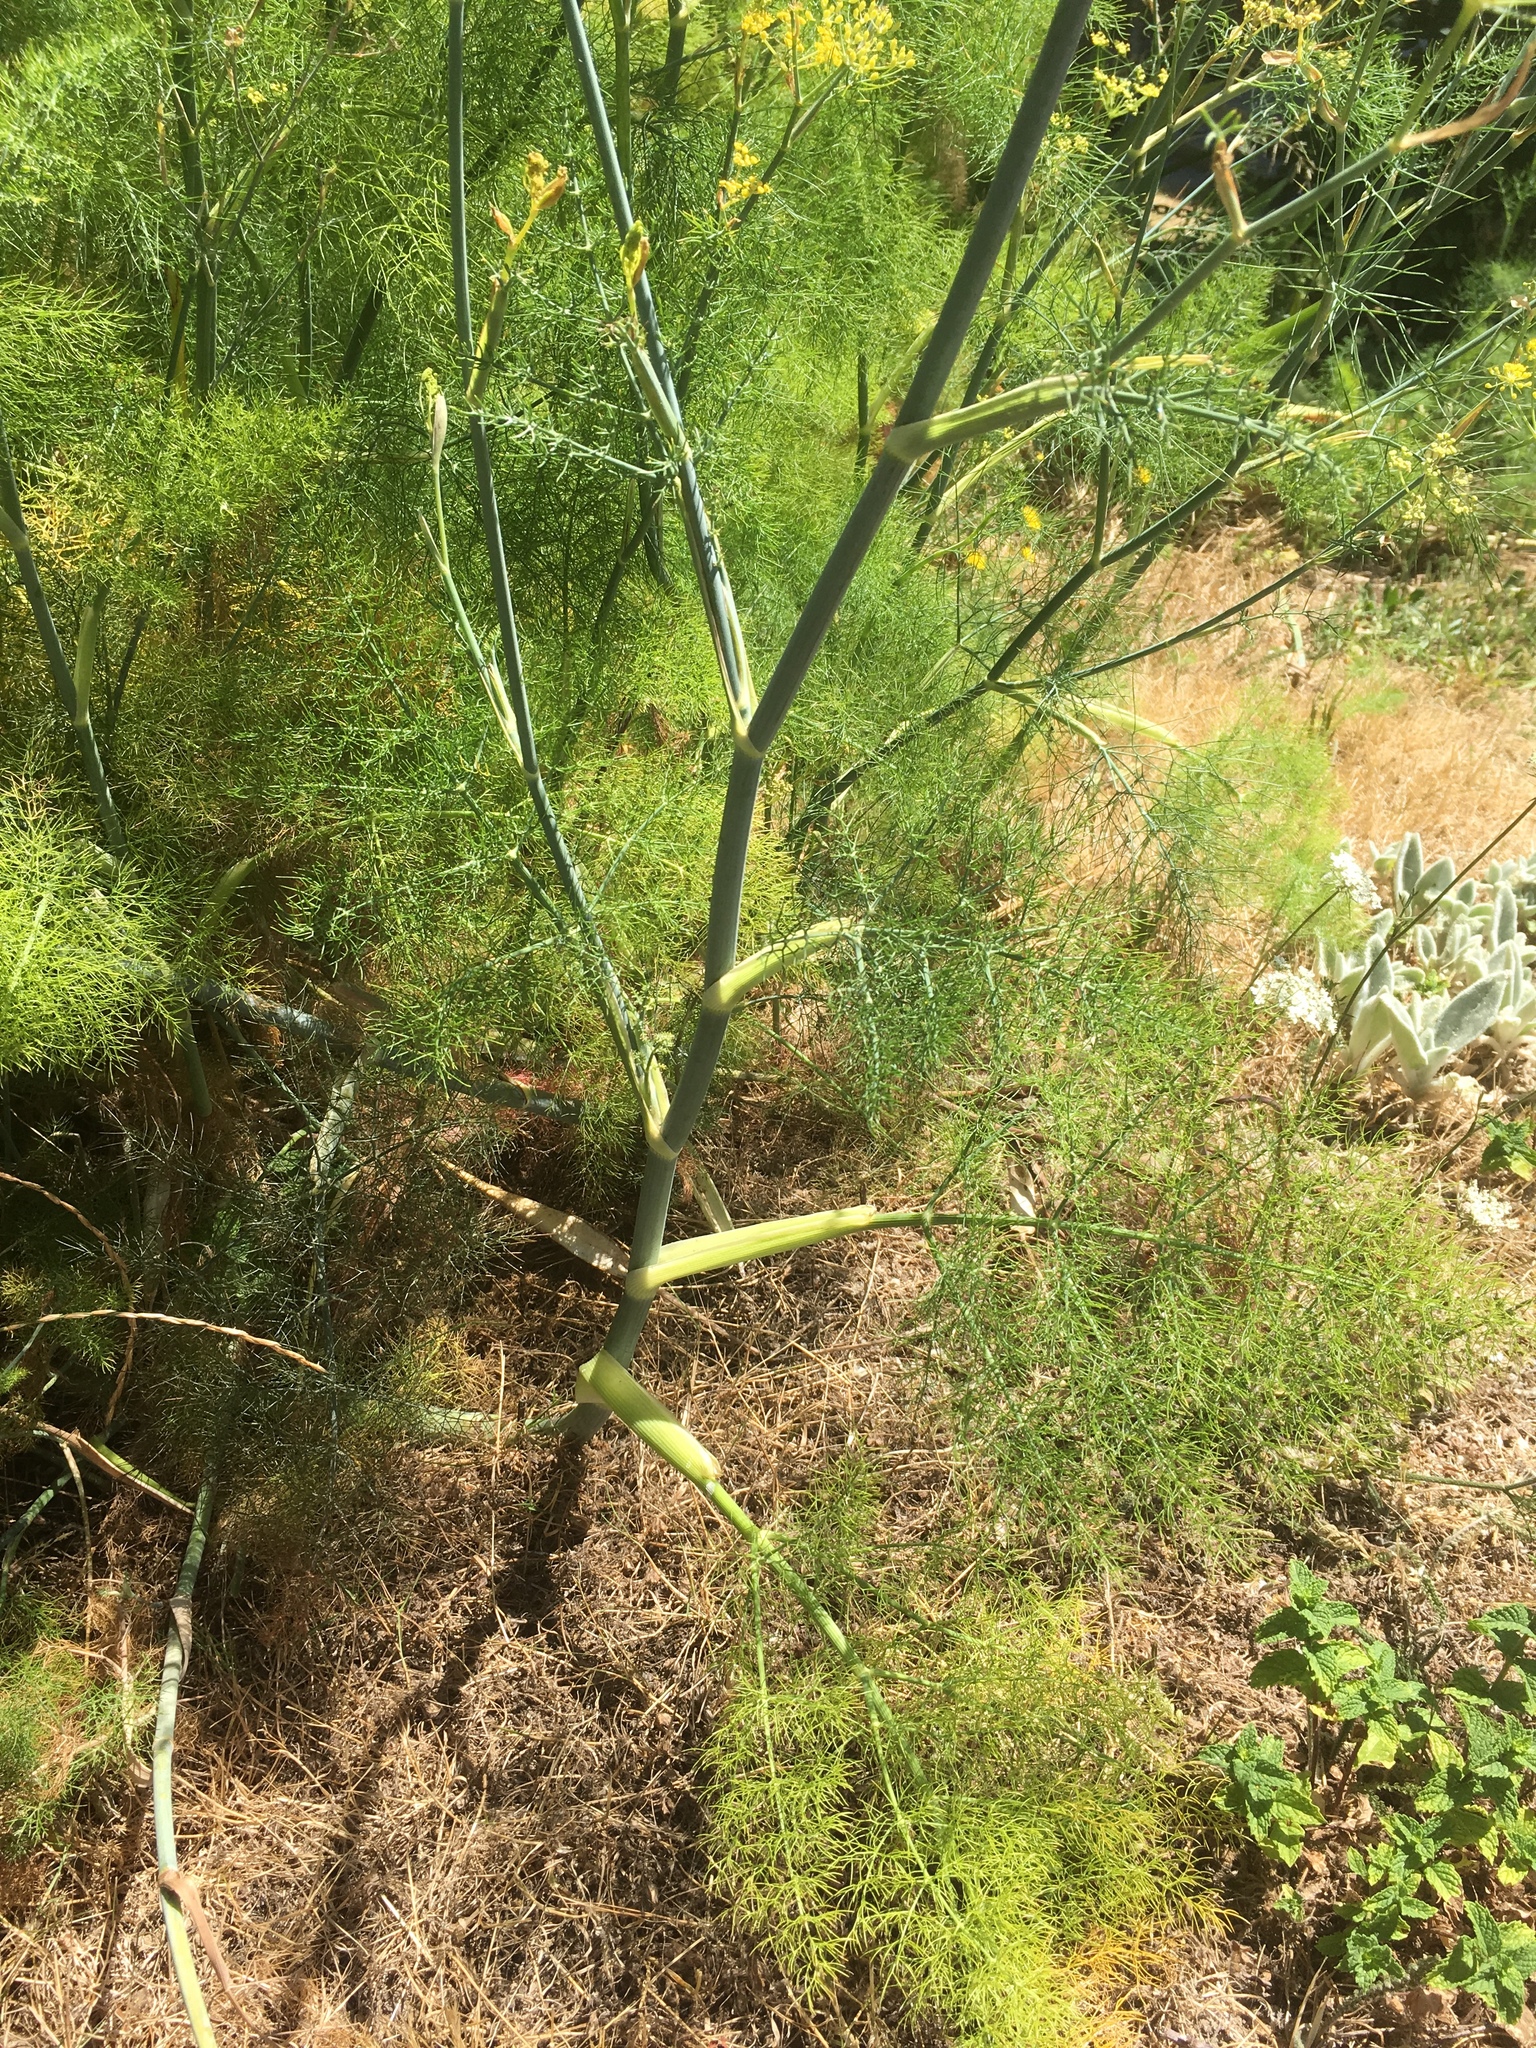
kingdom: Plantae
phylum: Tracheophyta
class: Magnoliopsida
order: Apiales
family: Apiaceae
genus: Foeniculum
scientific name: Foeniculum vulgare
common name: Fennel
